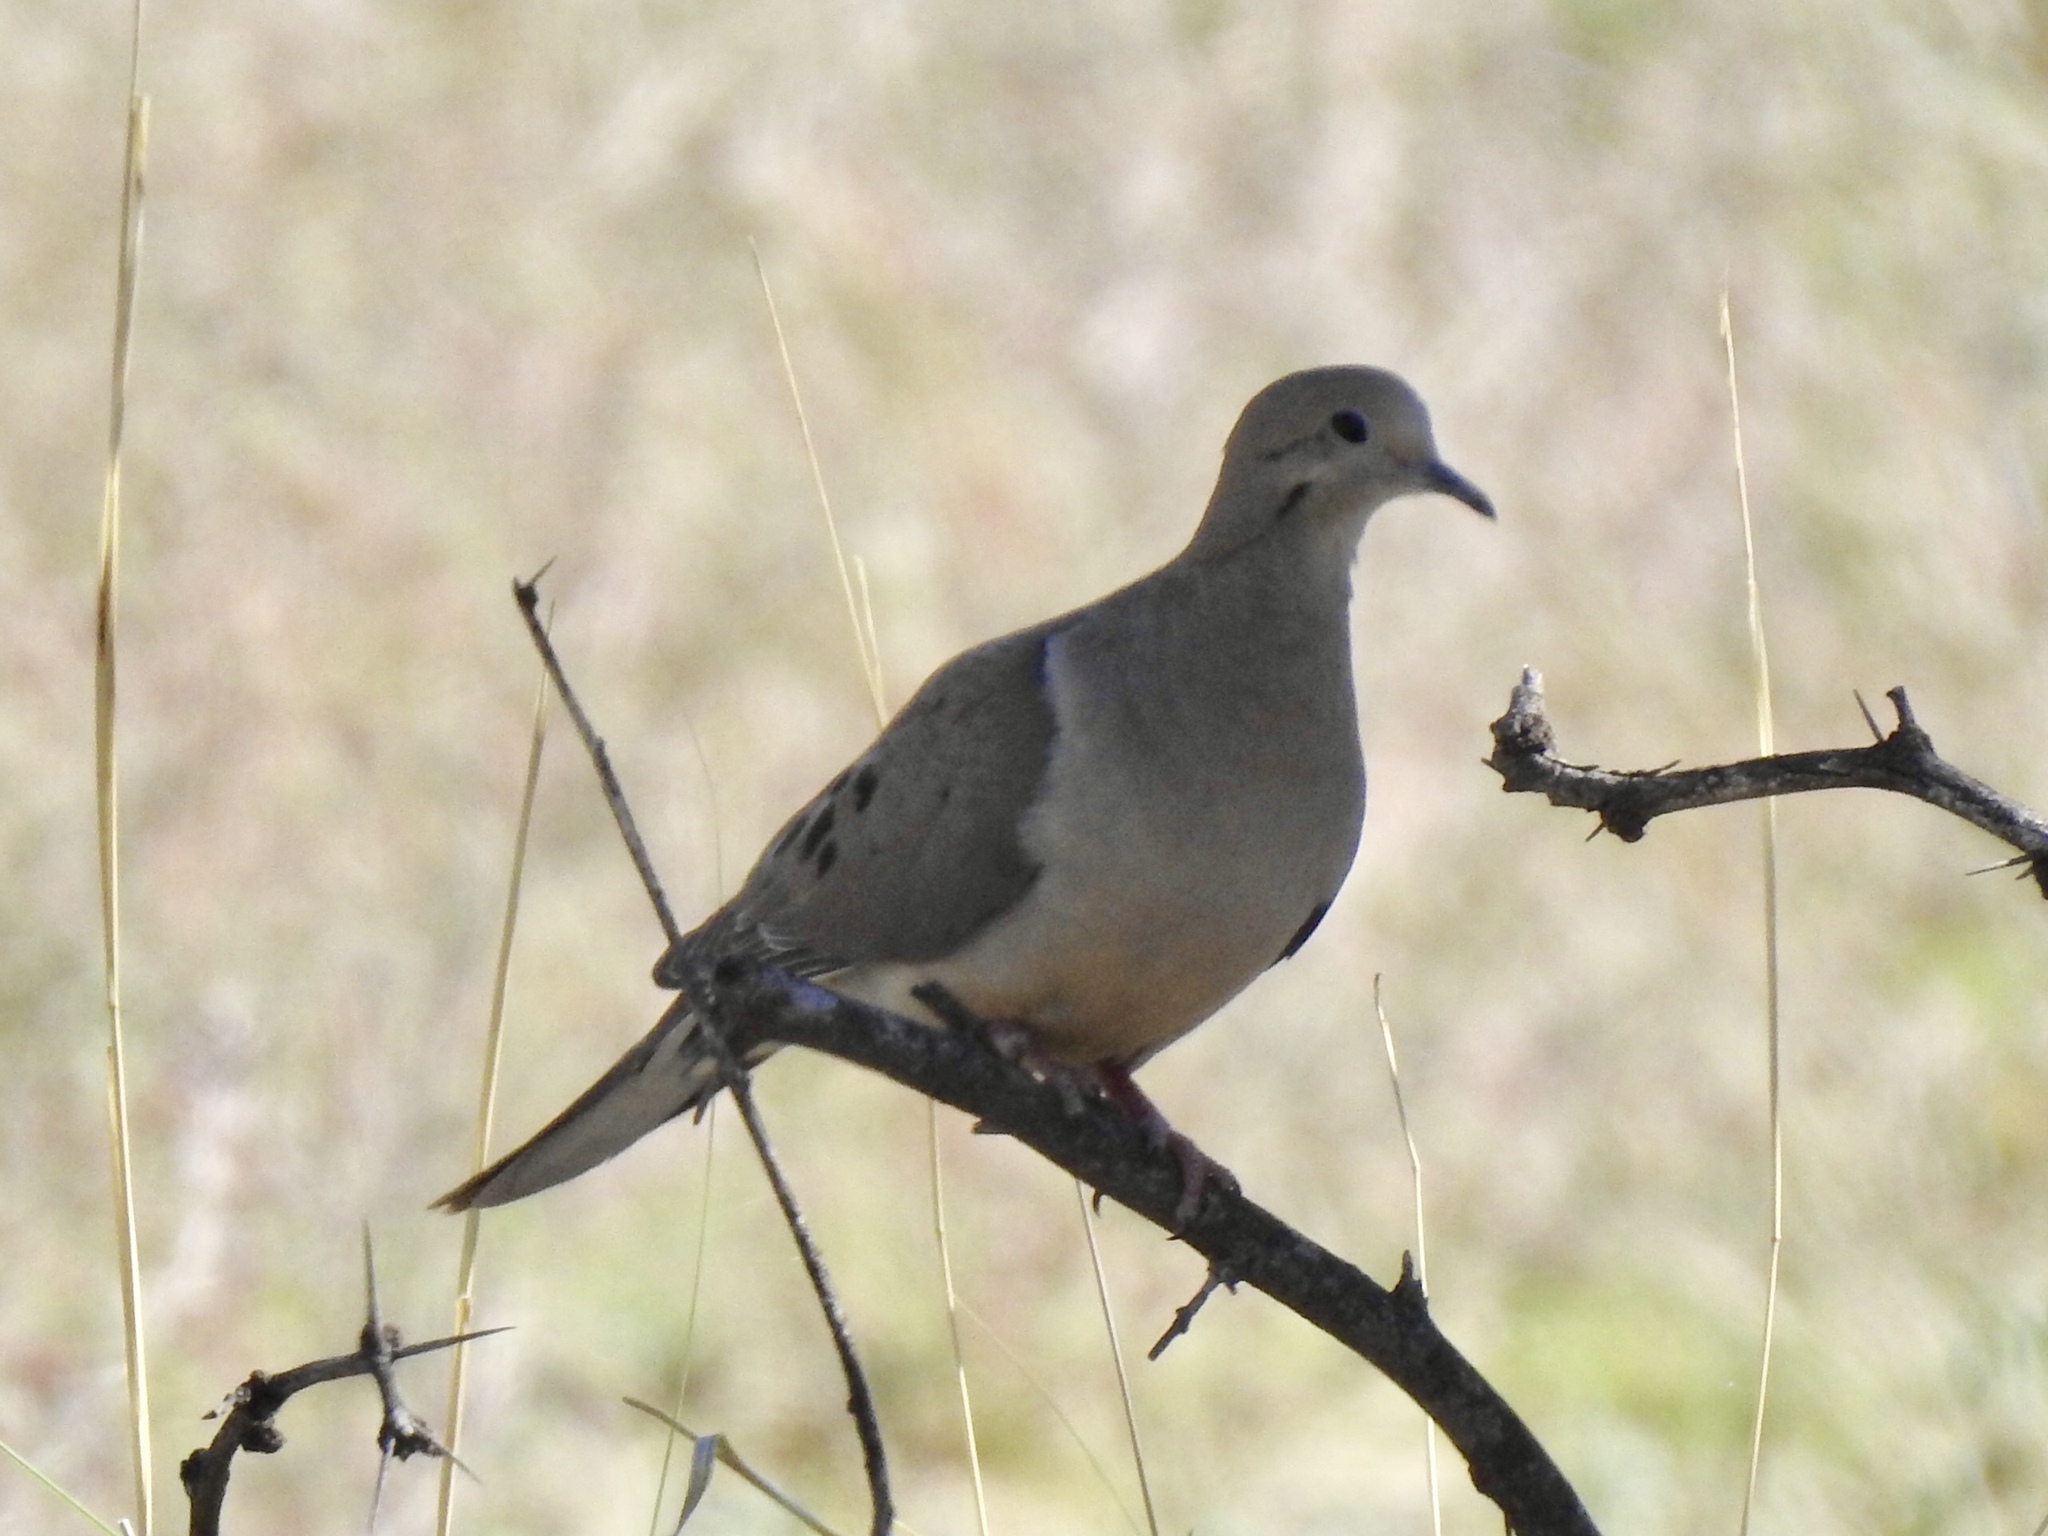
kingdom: Animalia
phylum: Chordata
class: Aves
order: Columbiformes
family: Columbidae
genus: Zenaida
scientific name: Zenaida macroura
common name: Mourning dove
